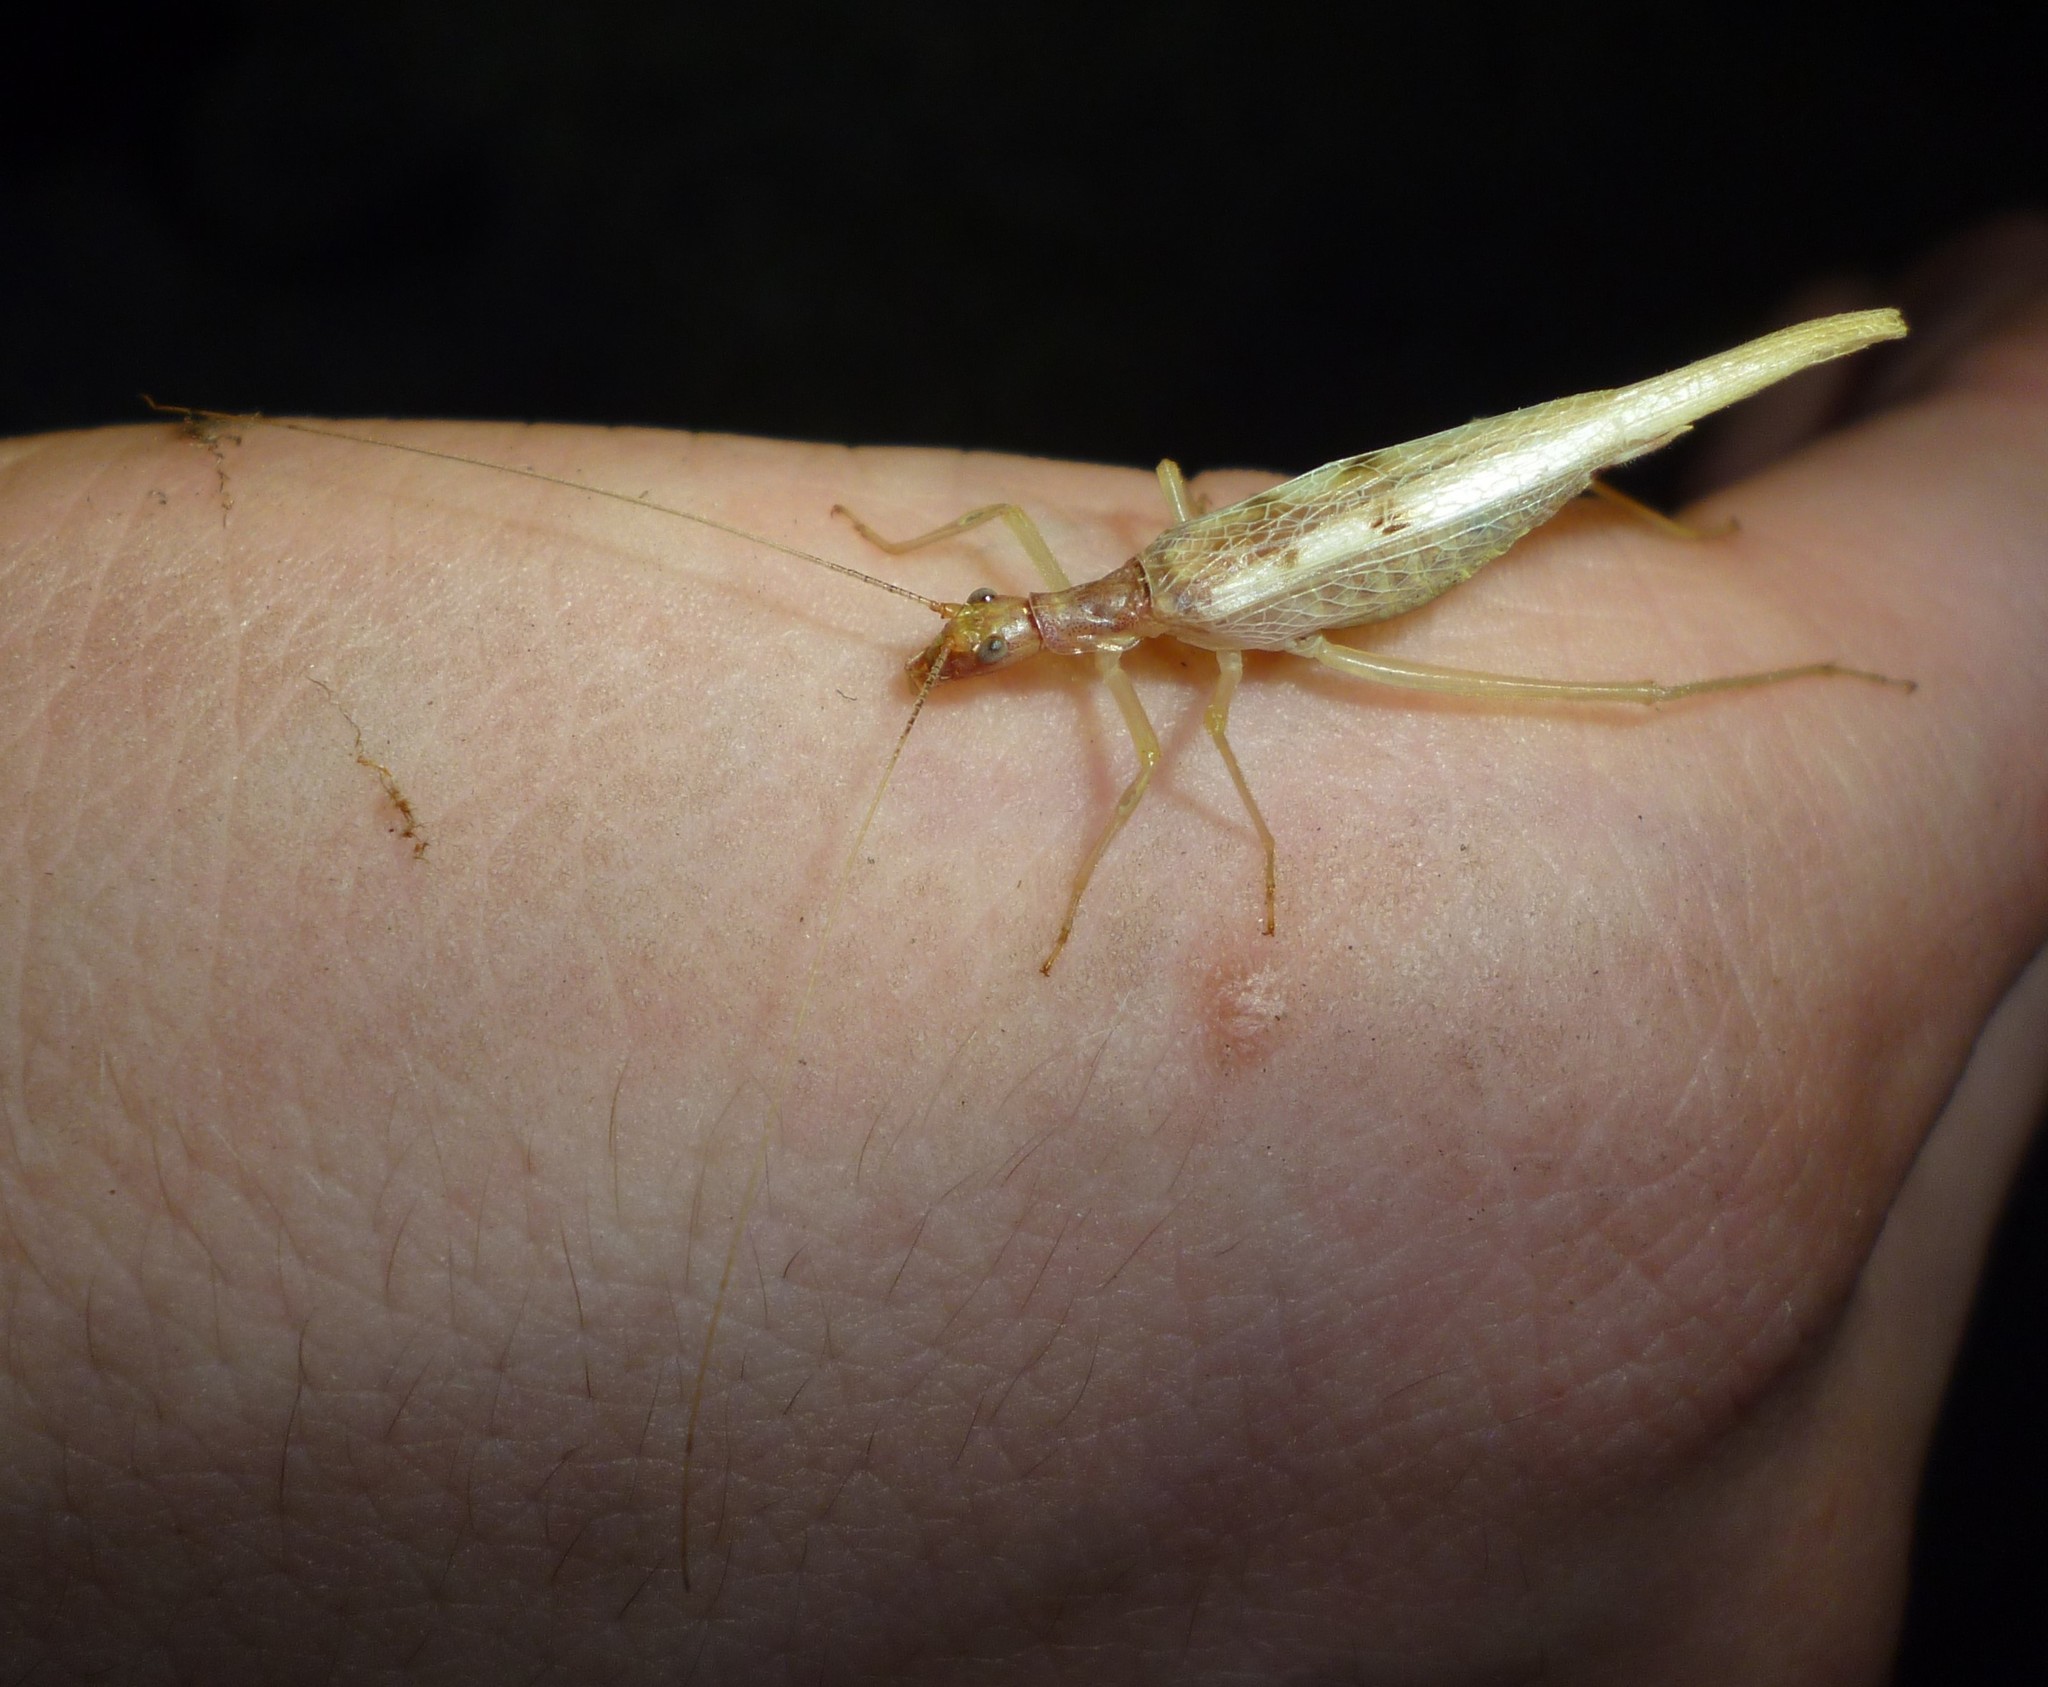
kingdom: Animalia
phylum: Arthropoda
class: Insecta
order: Orthoptera
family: Gryllidae
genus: Neoxabea
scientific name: Neoxabea bipunctata
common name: Two-spotted tree cricket
